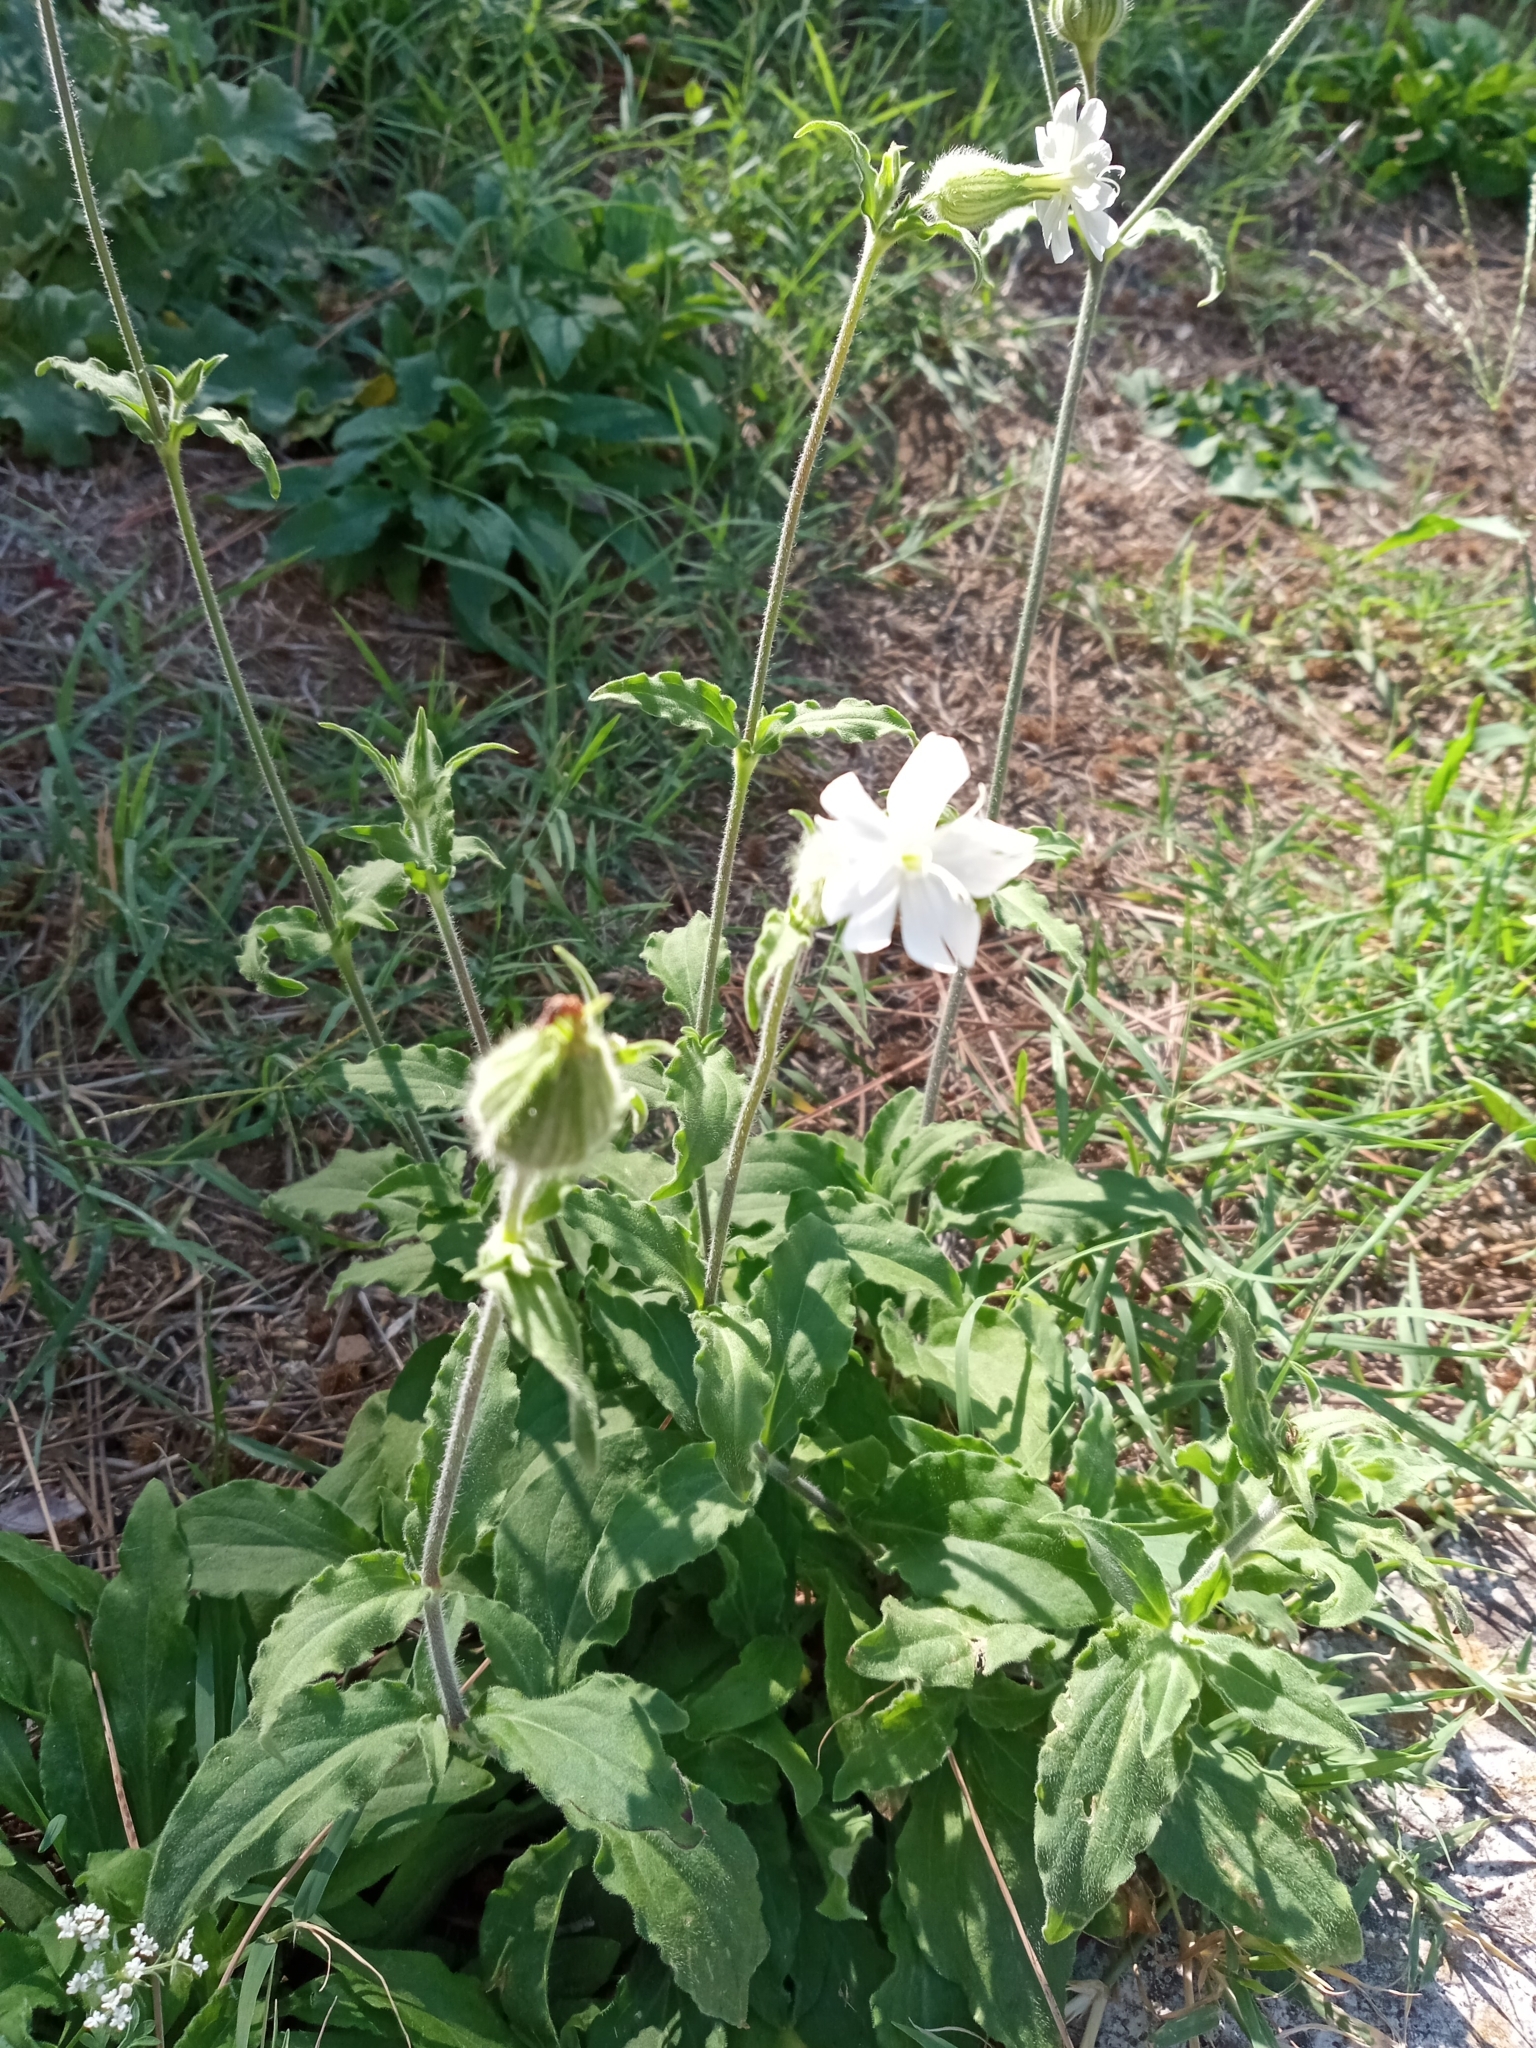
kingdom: Plantae
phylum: Tracheophyta
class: Magnoliopsida
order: Caryophyllales
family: Caryophyllaceae
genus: Silene
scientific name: Silene latifolia
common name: White campion
